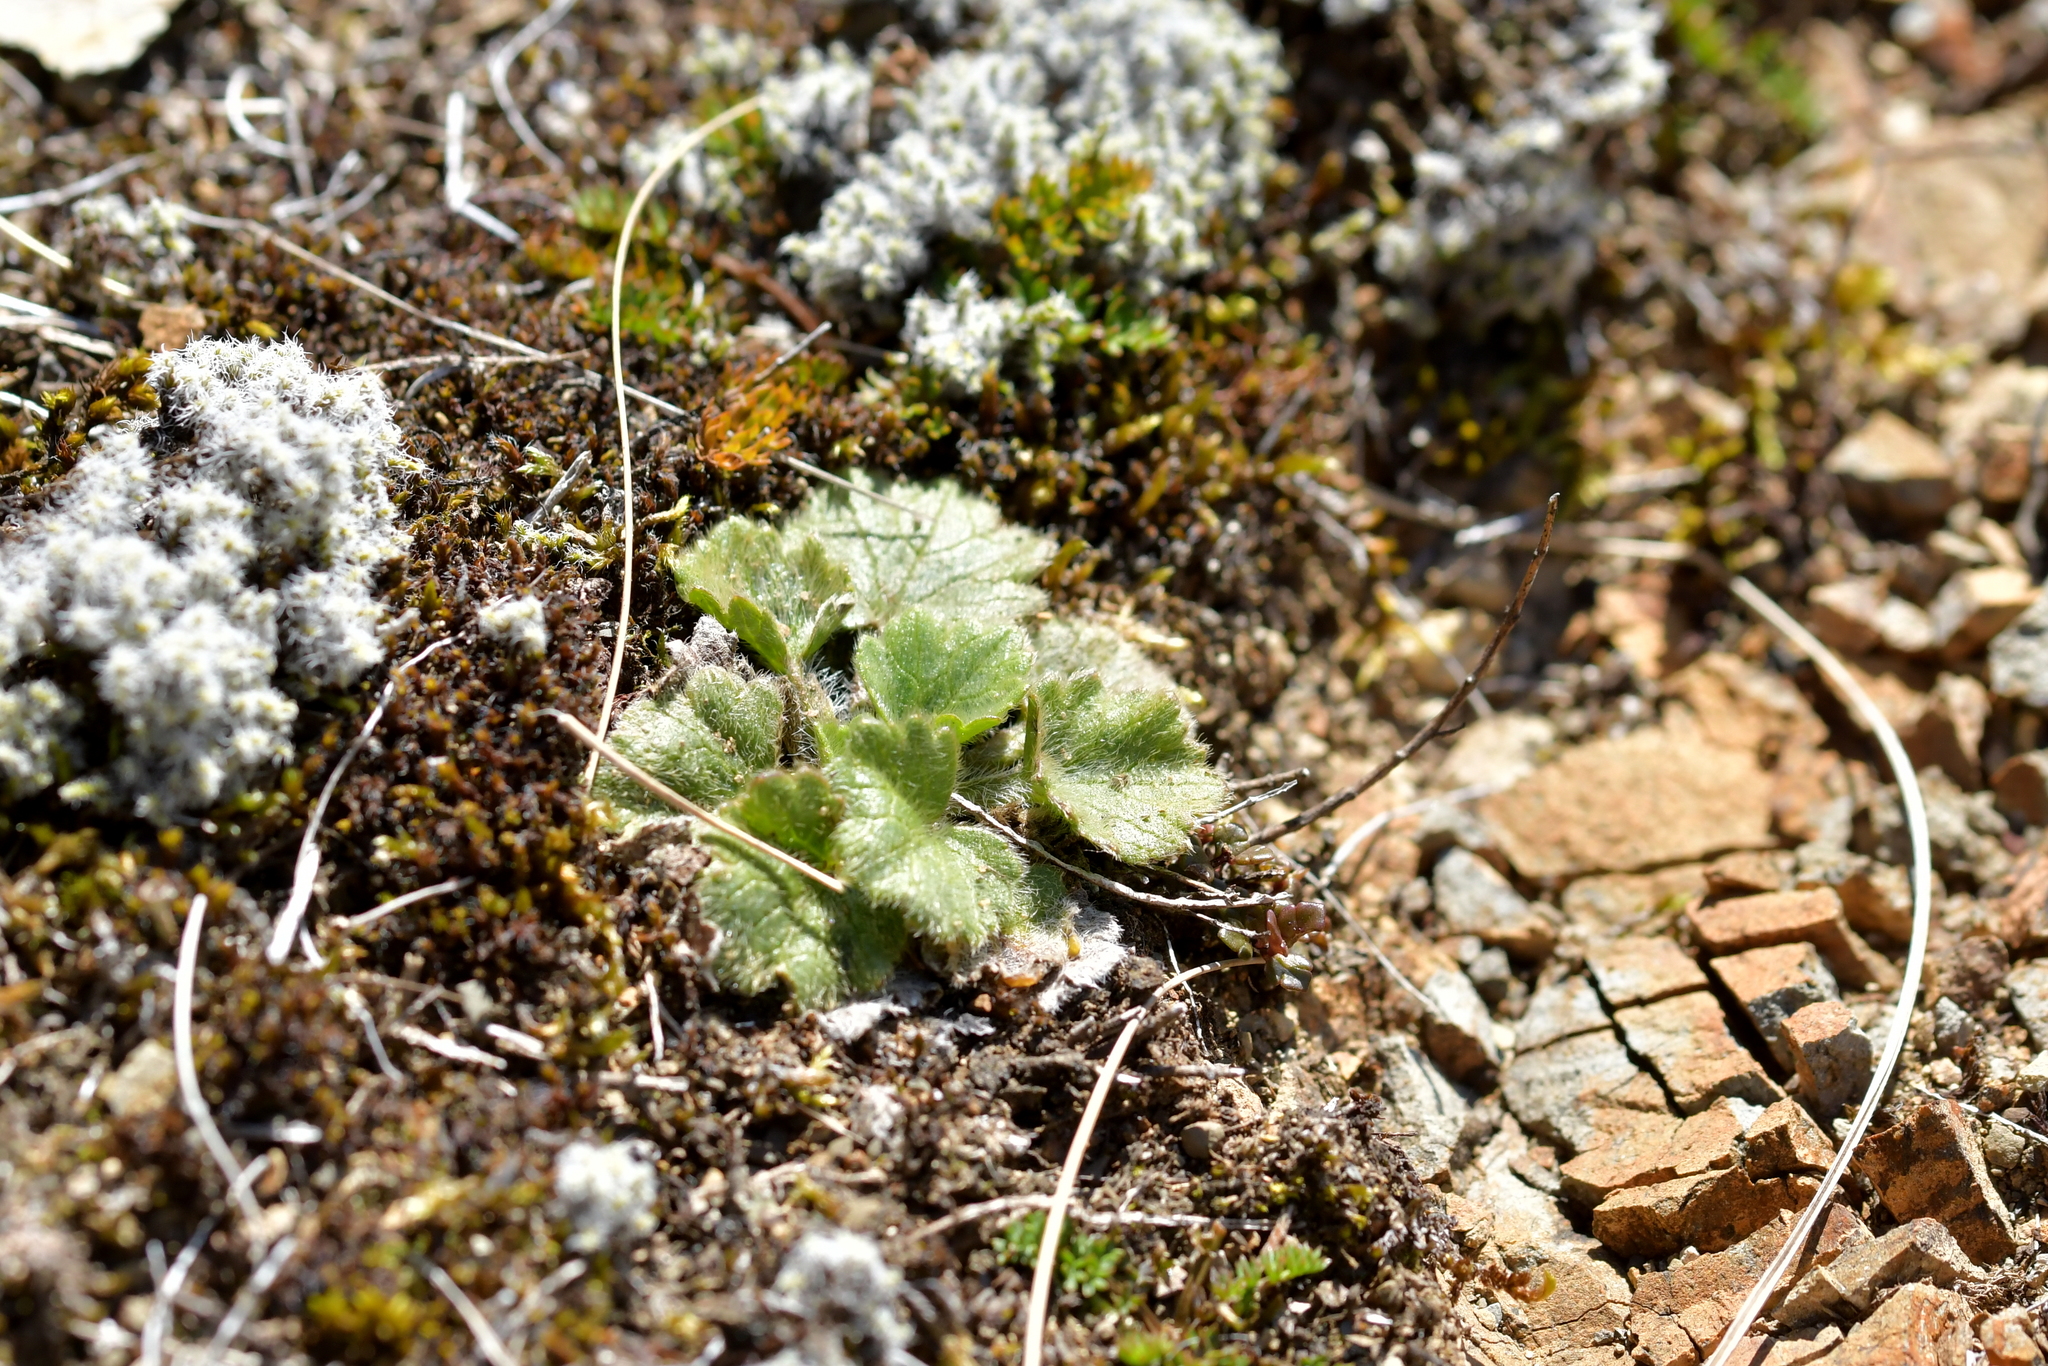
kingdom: Plantae
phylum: Tracheophyta
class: Magnoliopsida
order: Ranunculales
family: Ranunculaceae
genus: Ranunculus
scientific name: Ranunculus multiscapus
